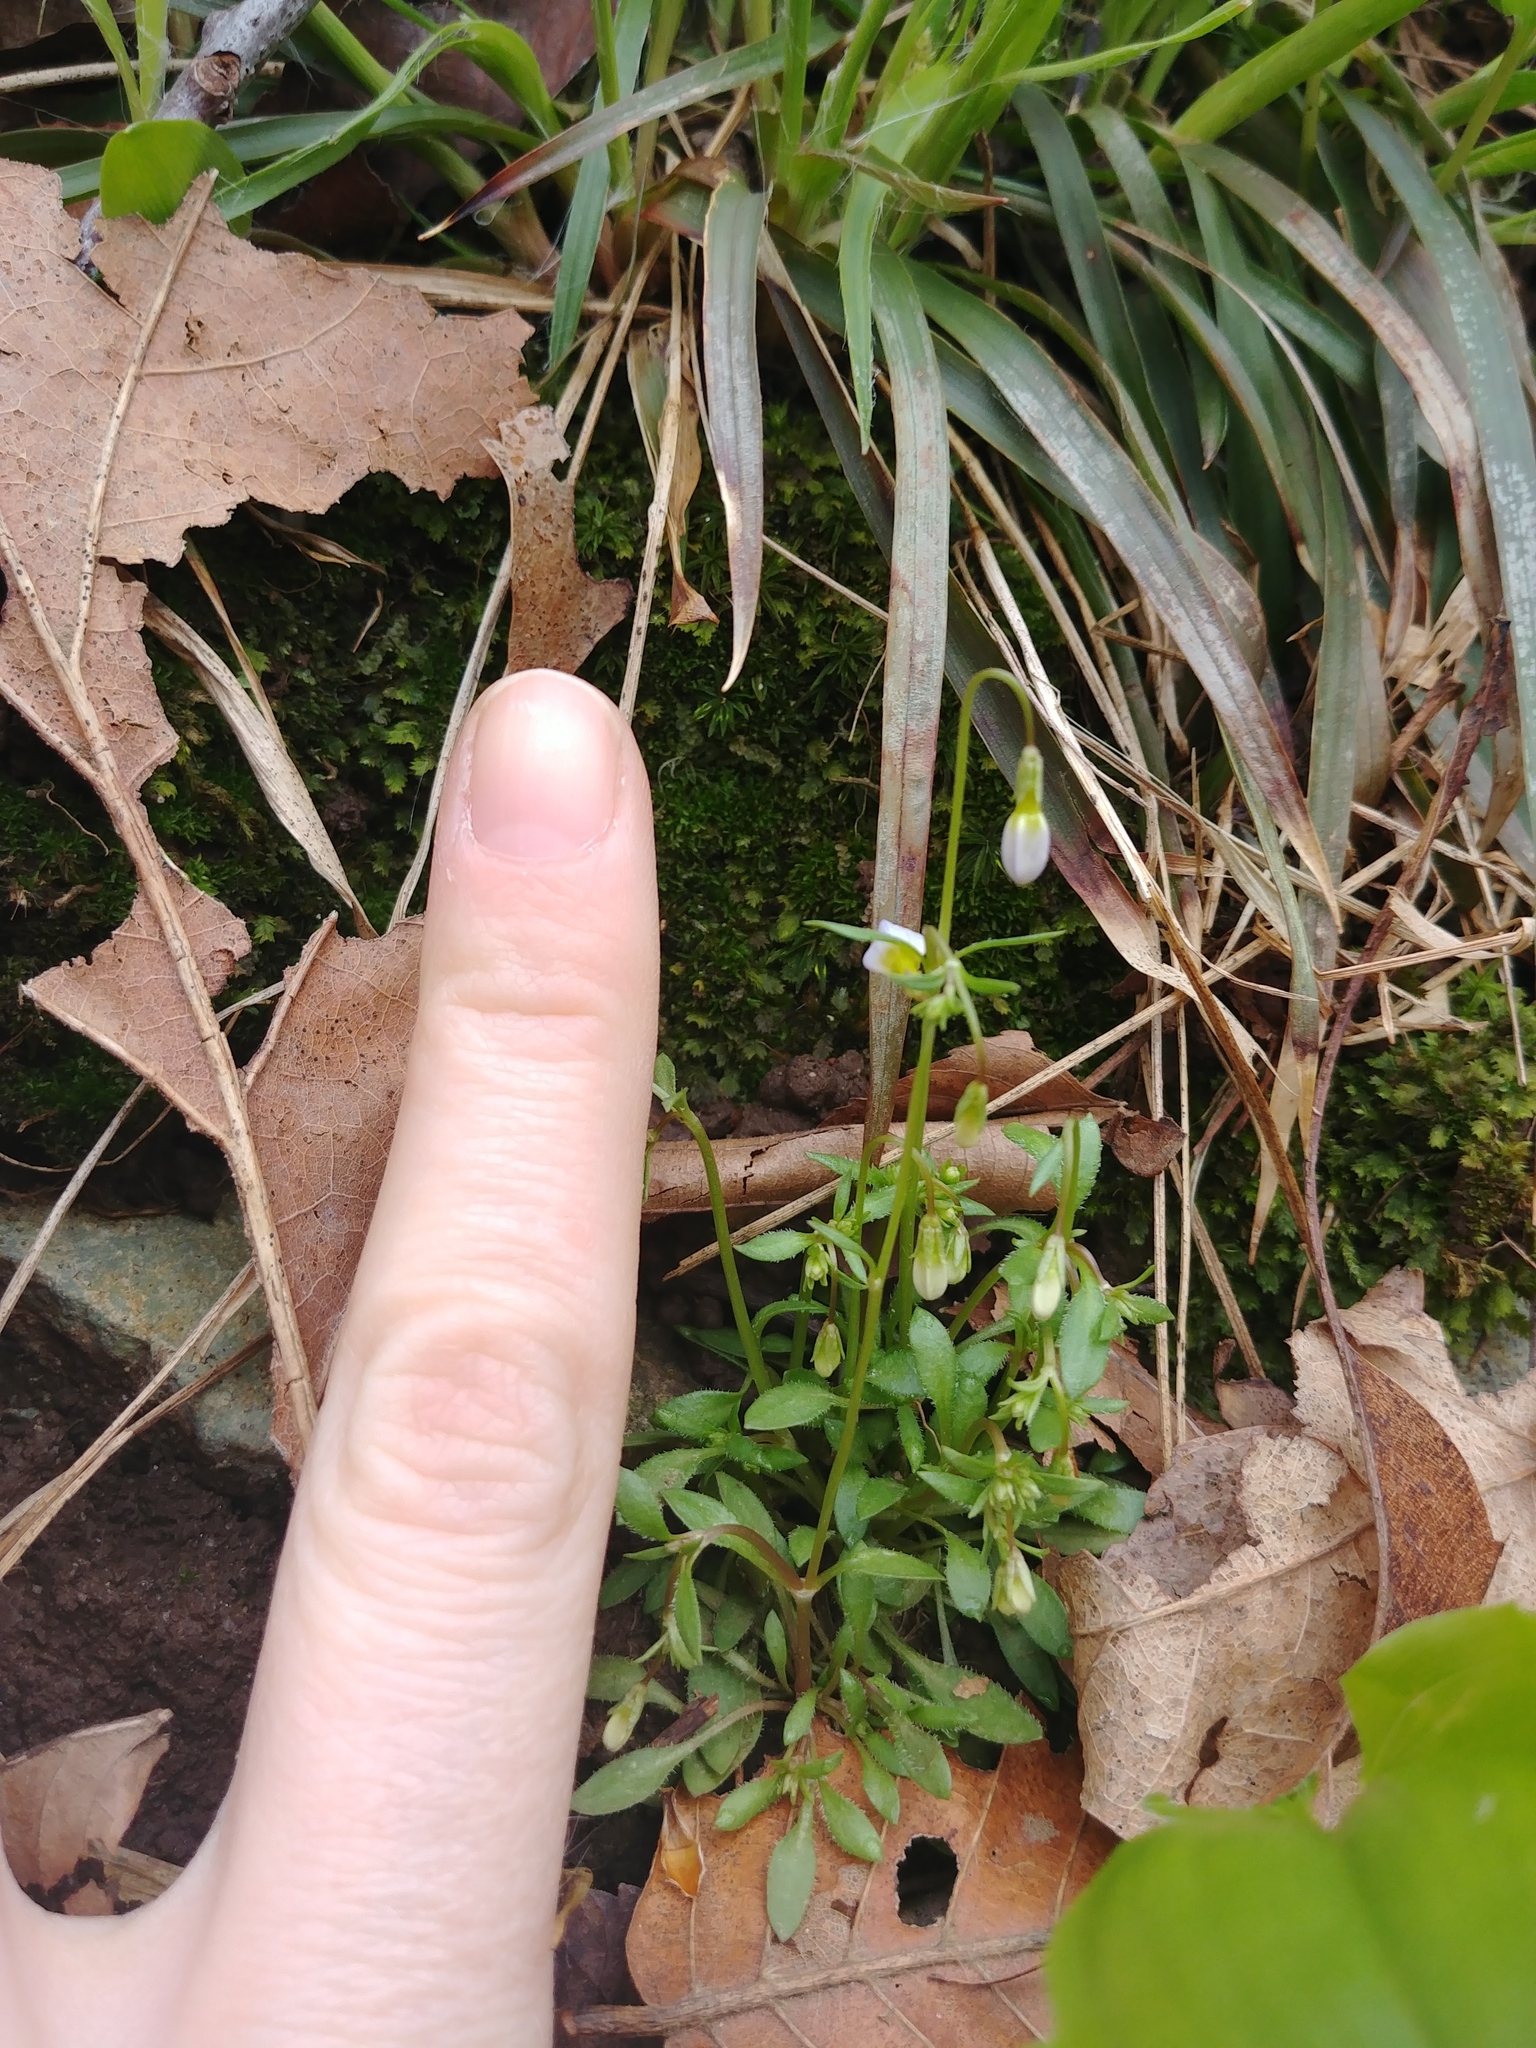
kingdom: Plantae
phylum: Tracheophyta
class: Magnoliopsida
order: Gentianales
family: Rubiaceae
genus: Houstonia
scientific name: Houstonia caerulea
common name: Bluets
